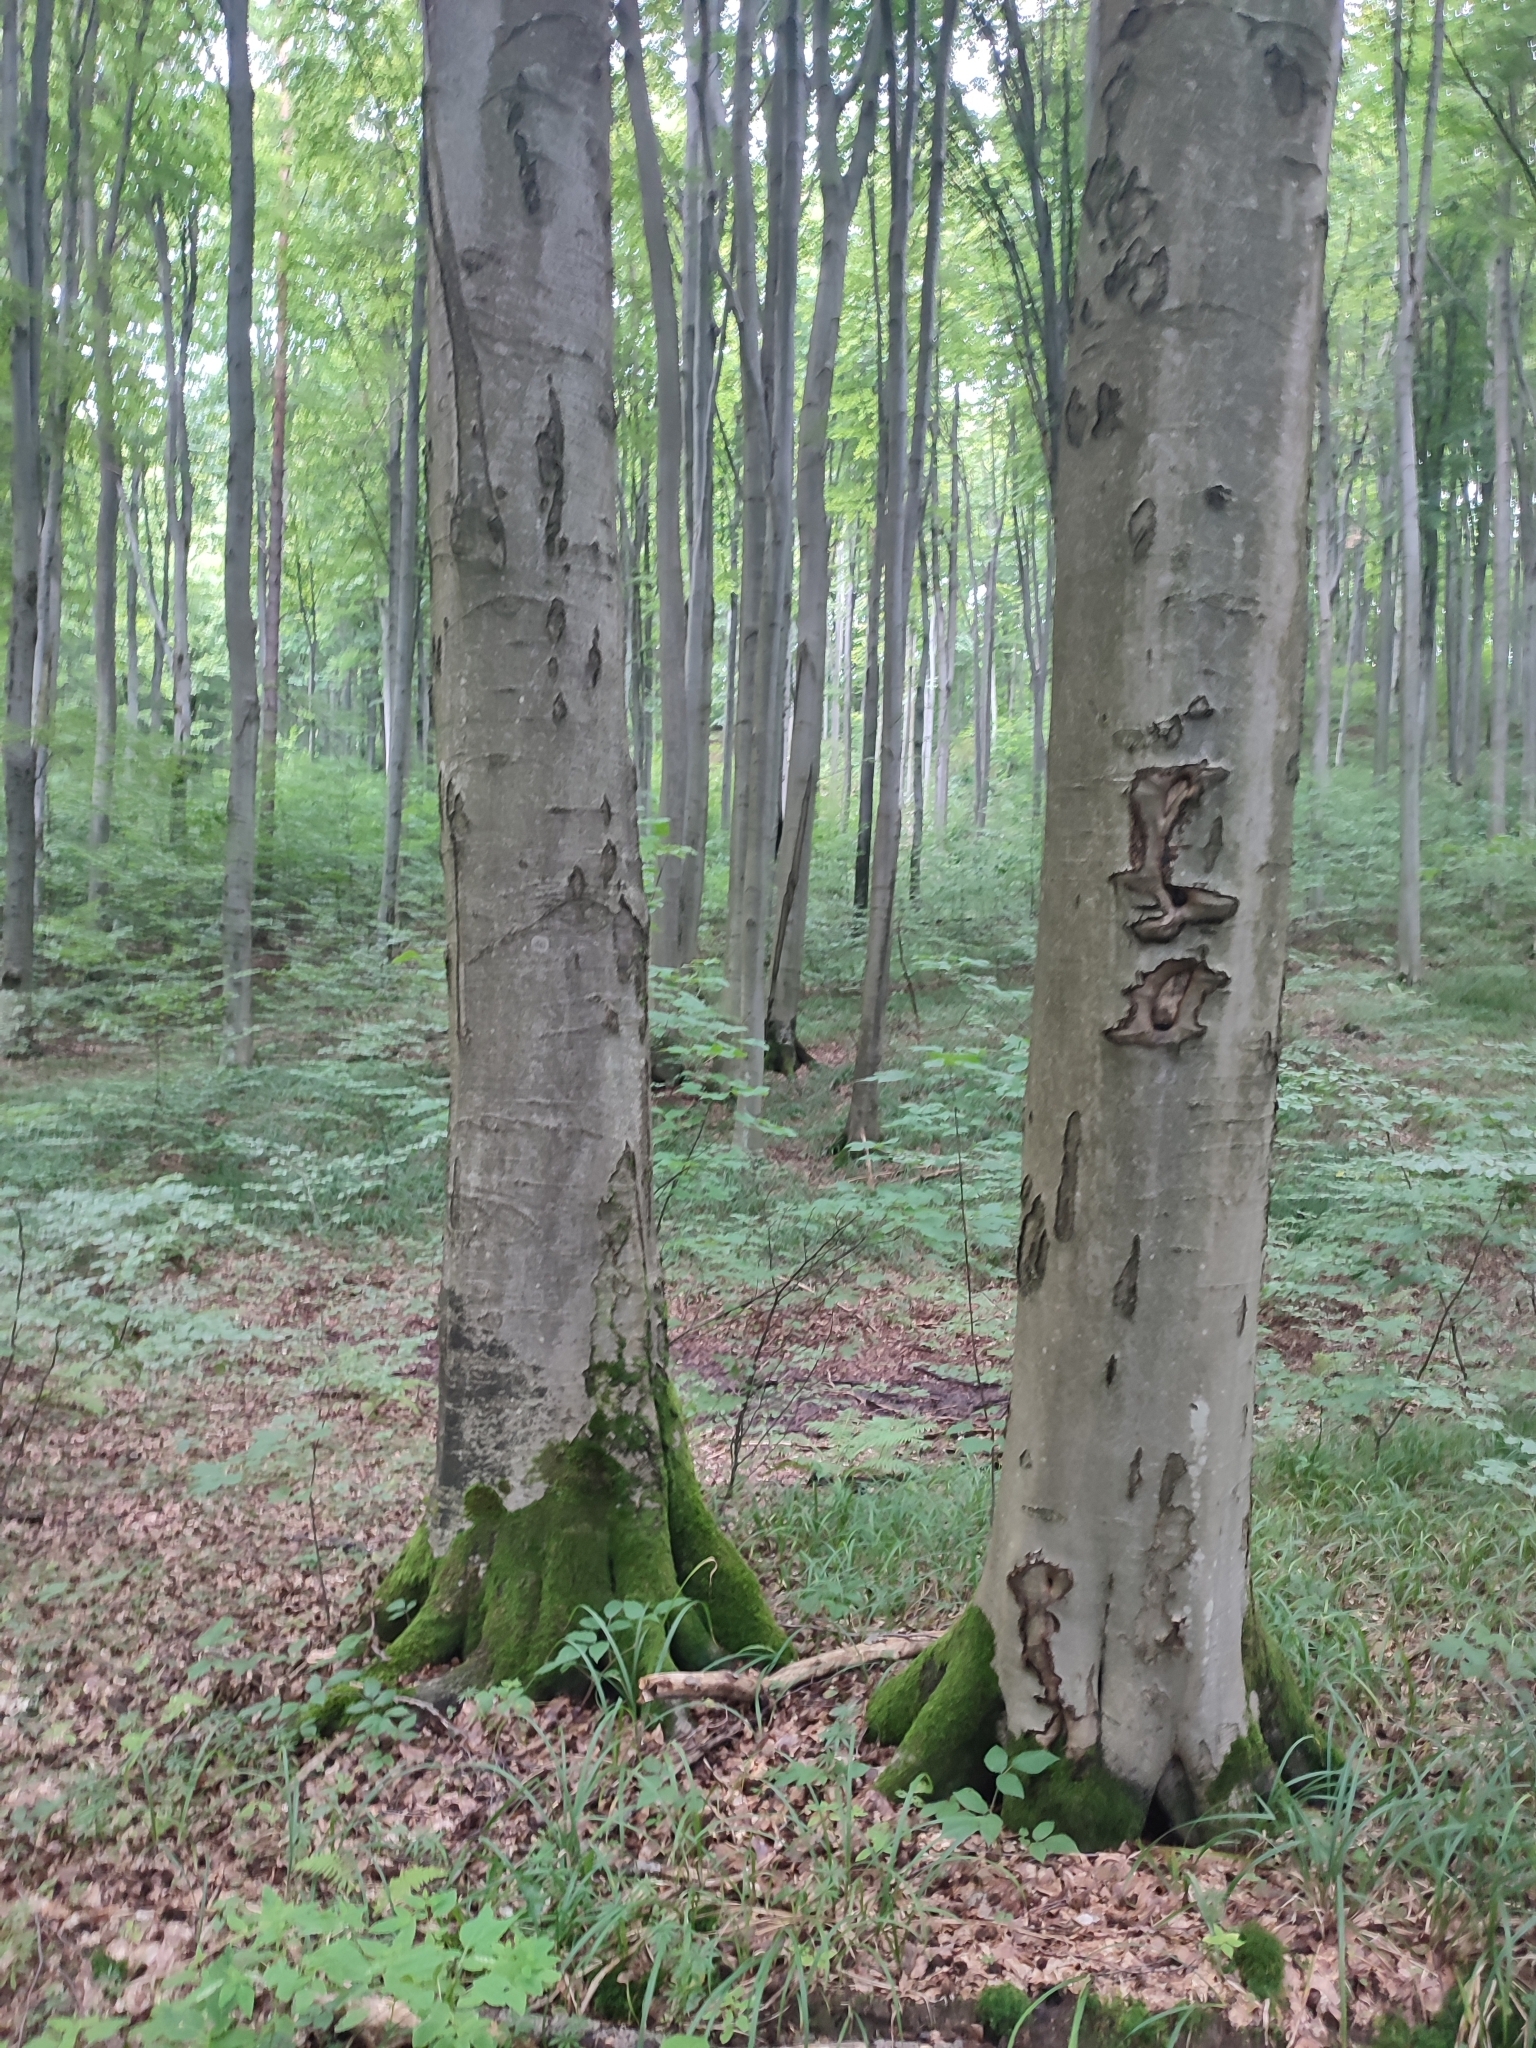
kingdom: Plantae
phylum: Tracheophyta
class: Magnoliopsida
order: Fagales
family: Fagaceae
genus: Fagus
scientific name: Fagus sylvatica
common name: Beech
